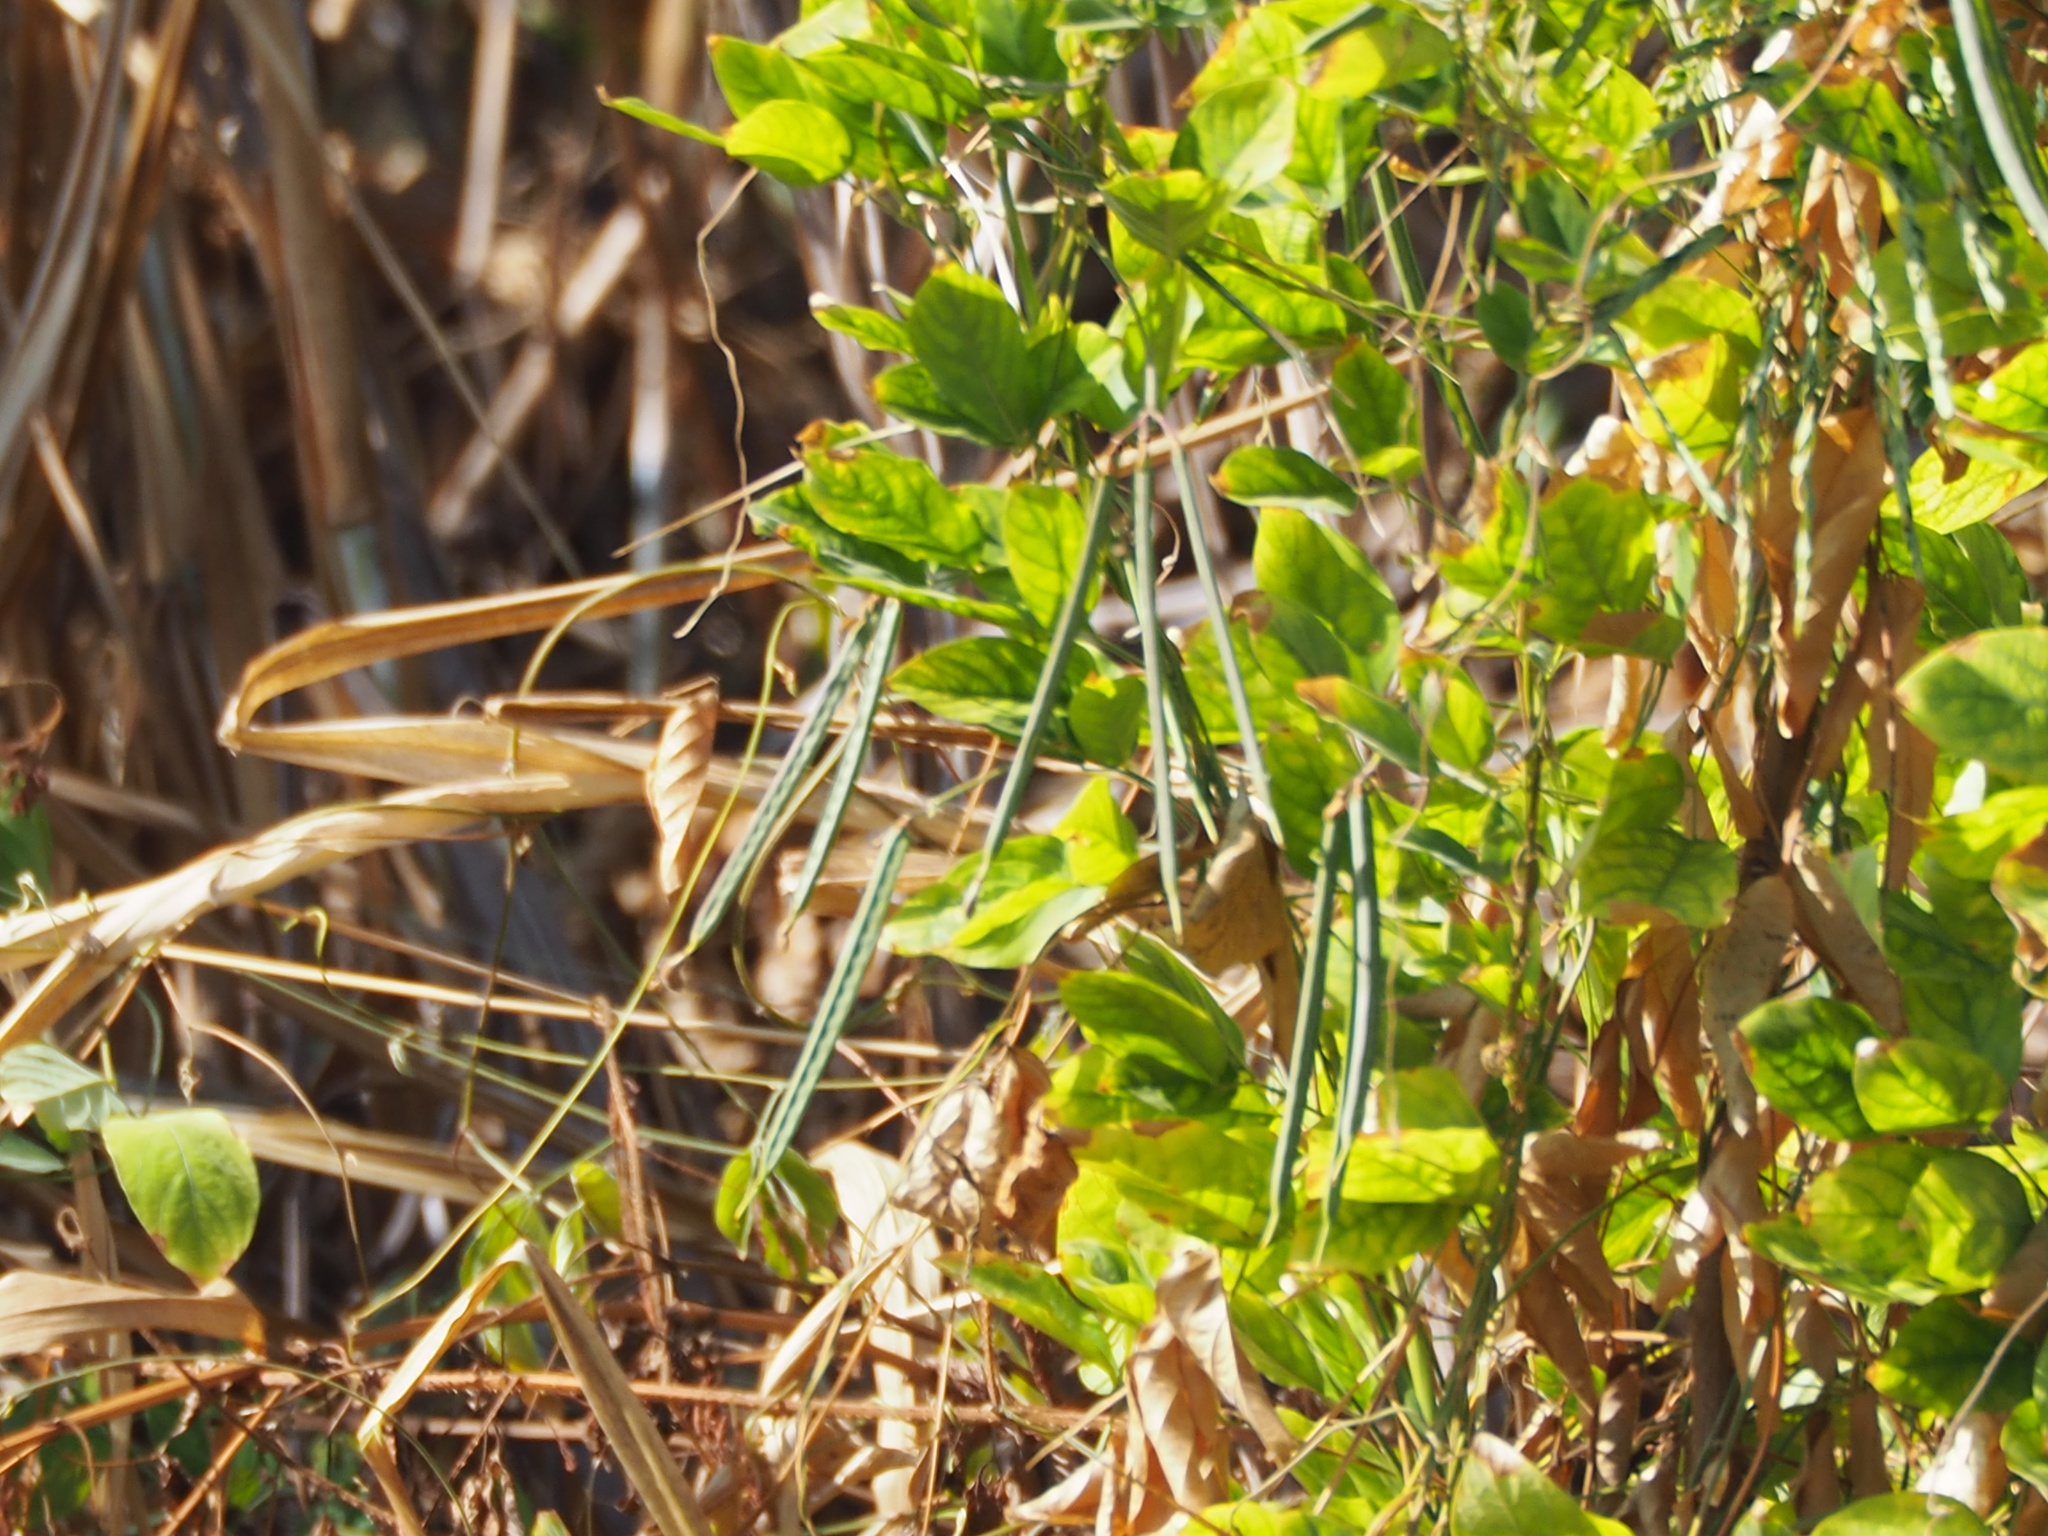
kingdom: Plantae
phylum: Tracheophyta
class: Magnoliopsida
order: Fabales
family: Fabaceae
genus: Centrosema
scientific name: Centrosema pubescens
